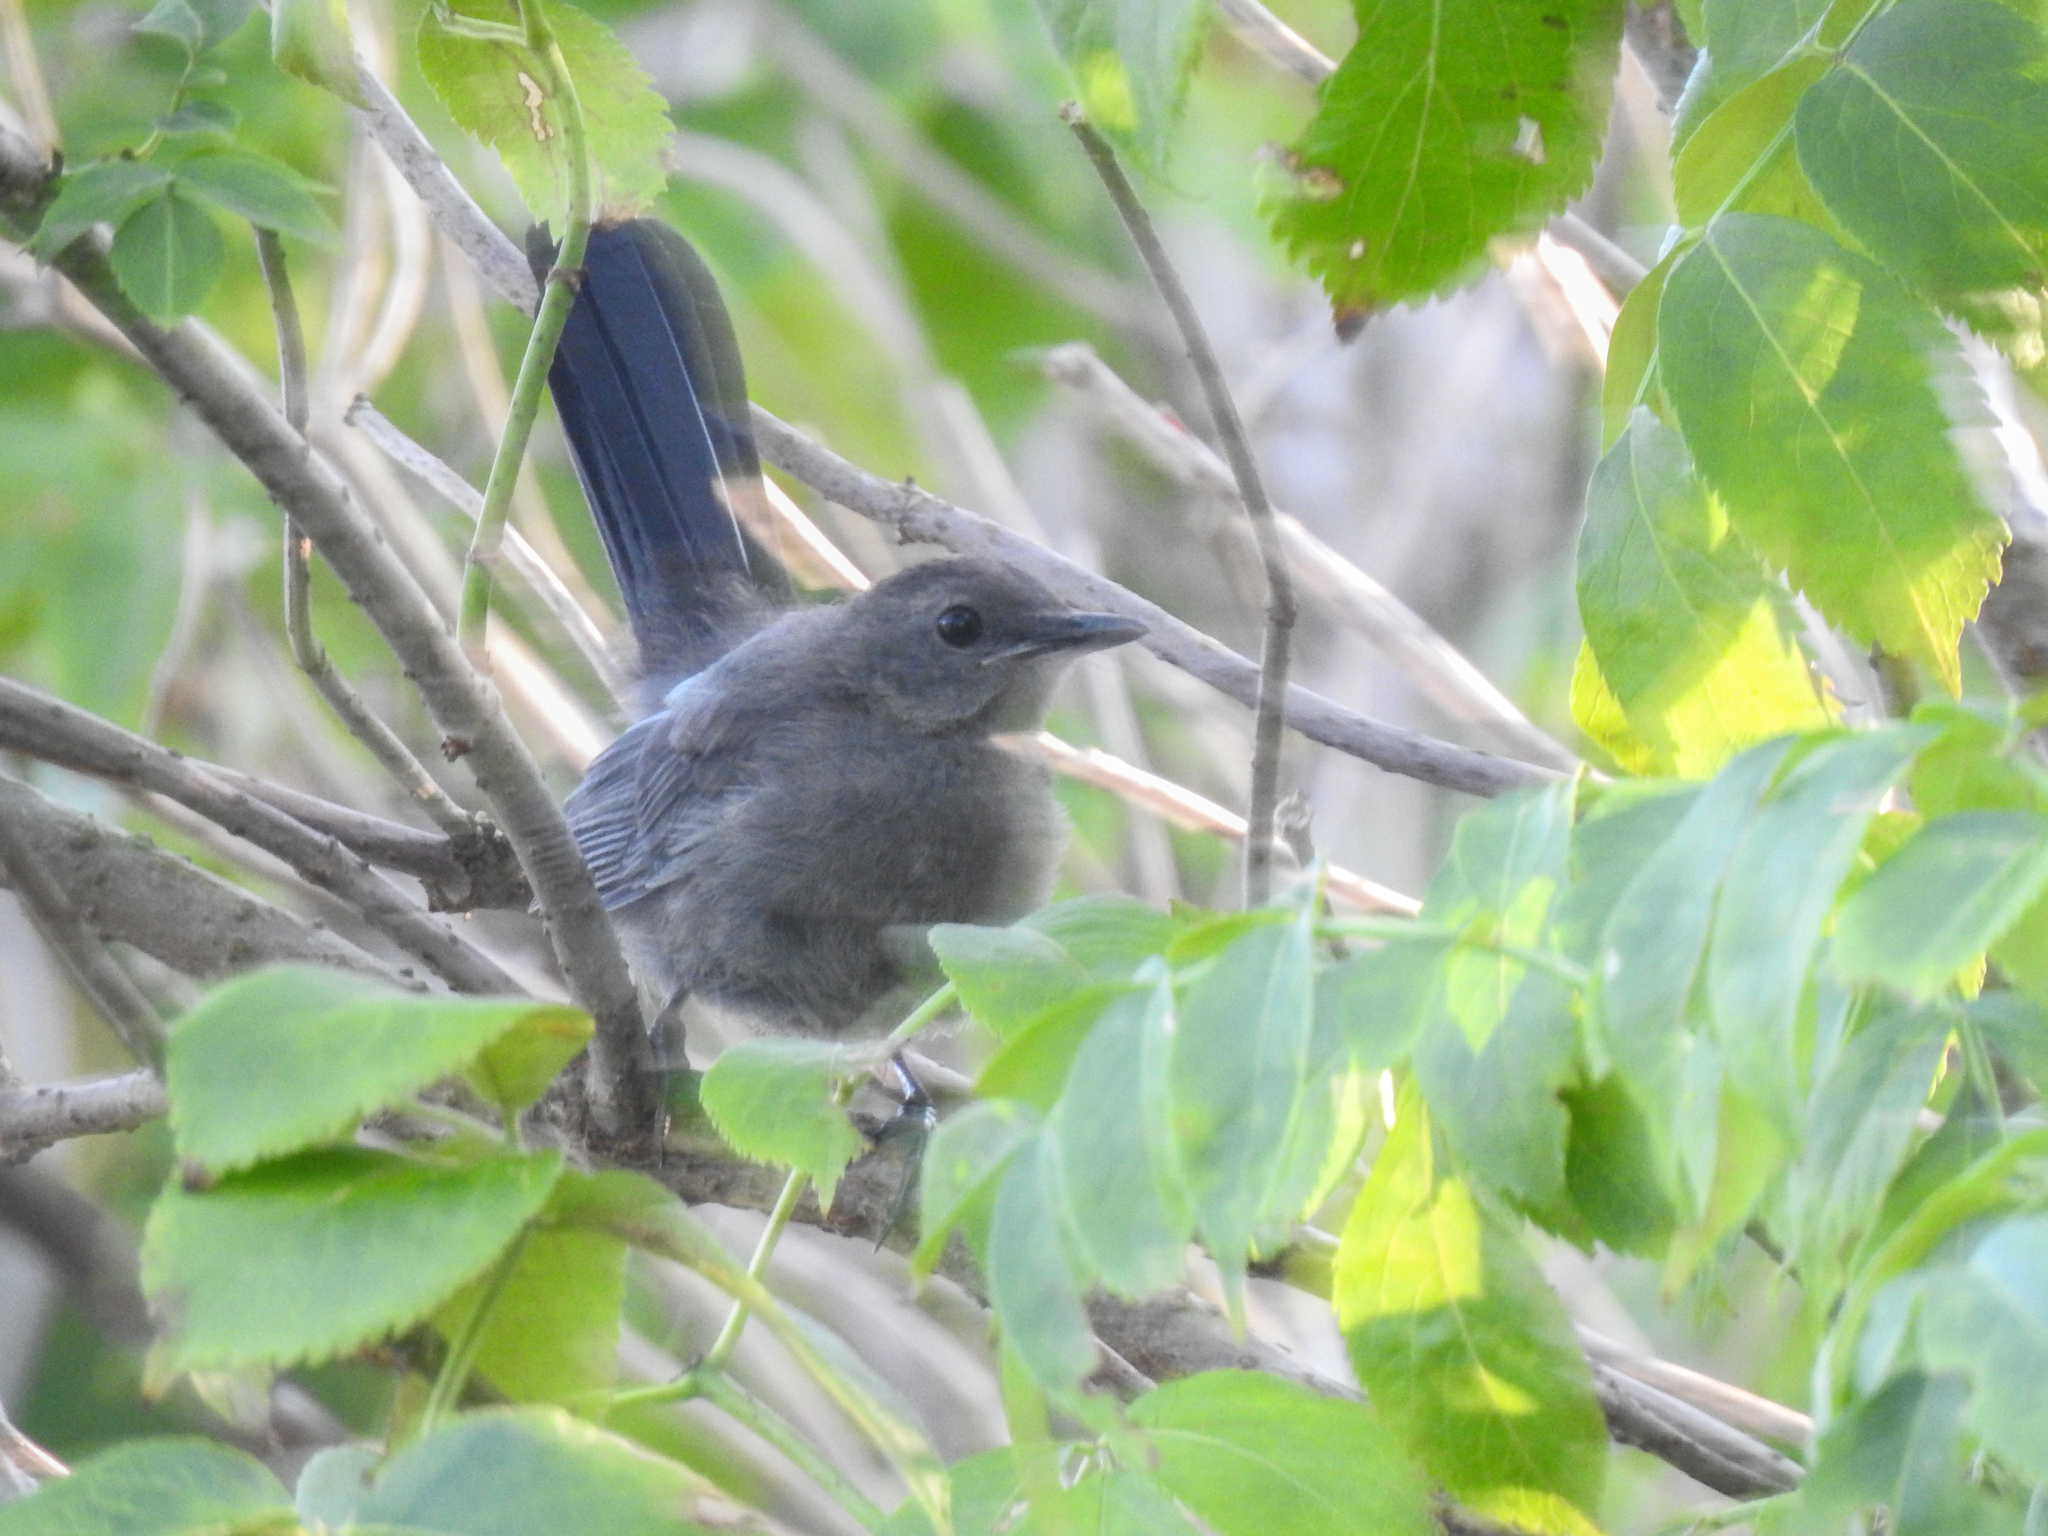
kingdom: Animalia
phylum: Chordata
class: Aves
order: Passeriformes
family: Mimidae
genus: Dumetella
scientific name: Dumetella carolinensis
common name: Gray catbird
